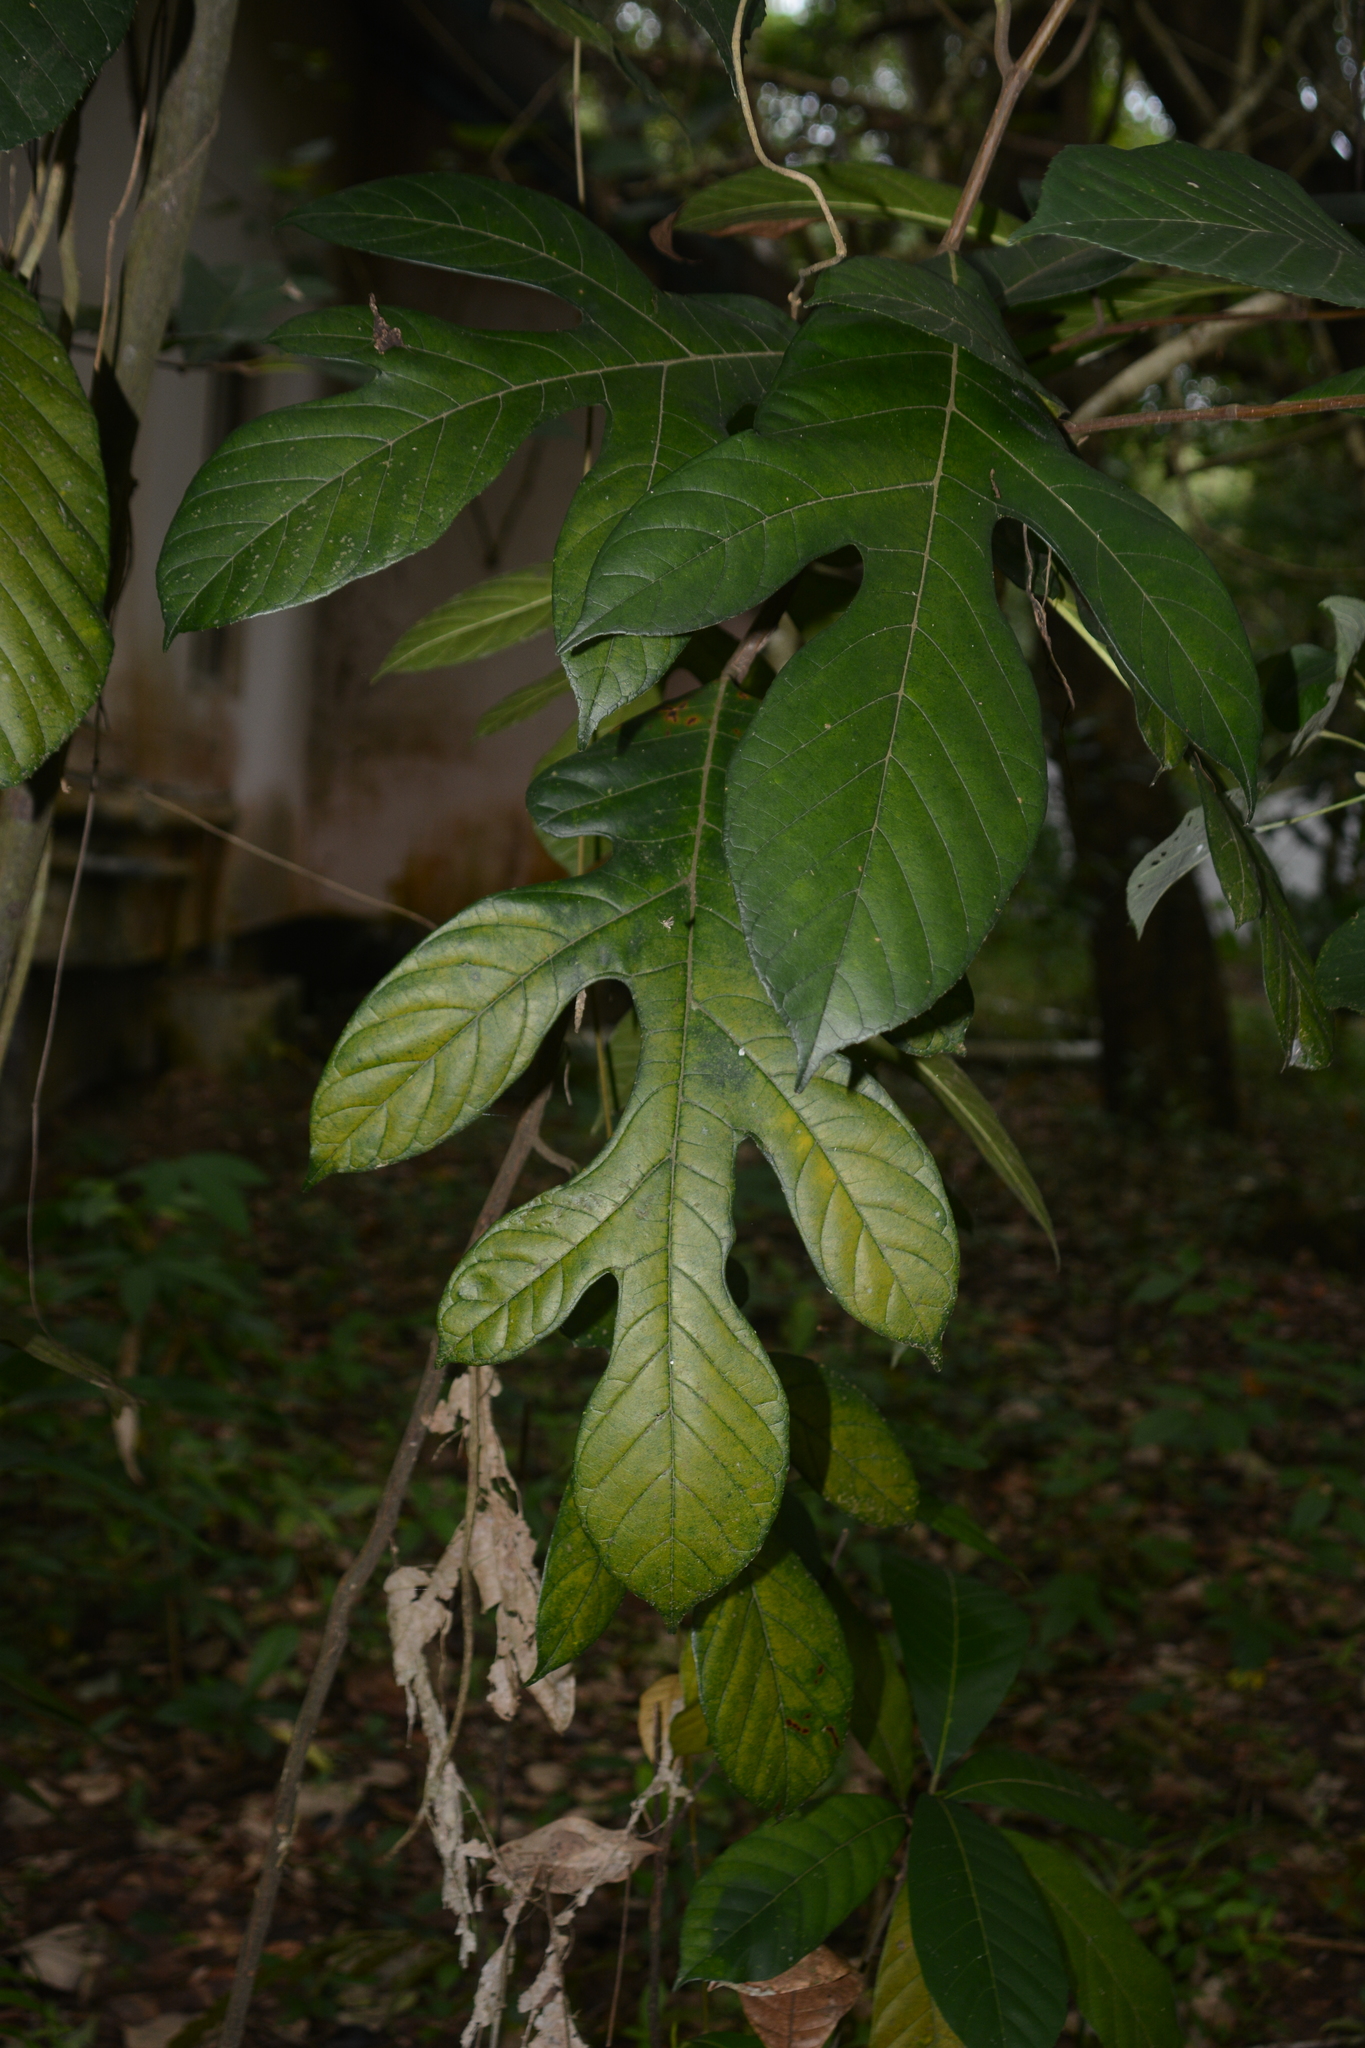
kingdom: Plantae
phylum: Tracheophyta
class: Magnoliopsida
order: Rosales
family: Moraceae
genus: Artocarpus
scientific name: Artocarpus hirsutus
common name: Hairy bread-fruit tree
